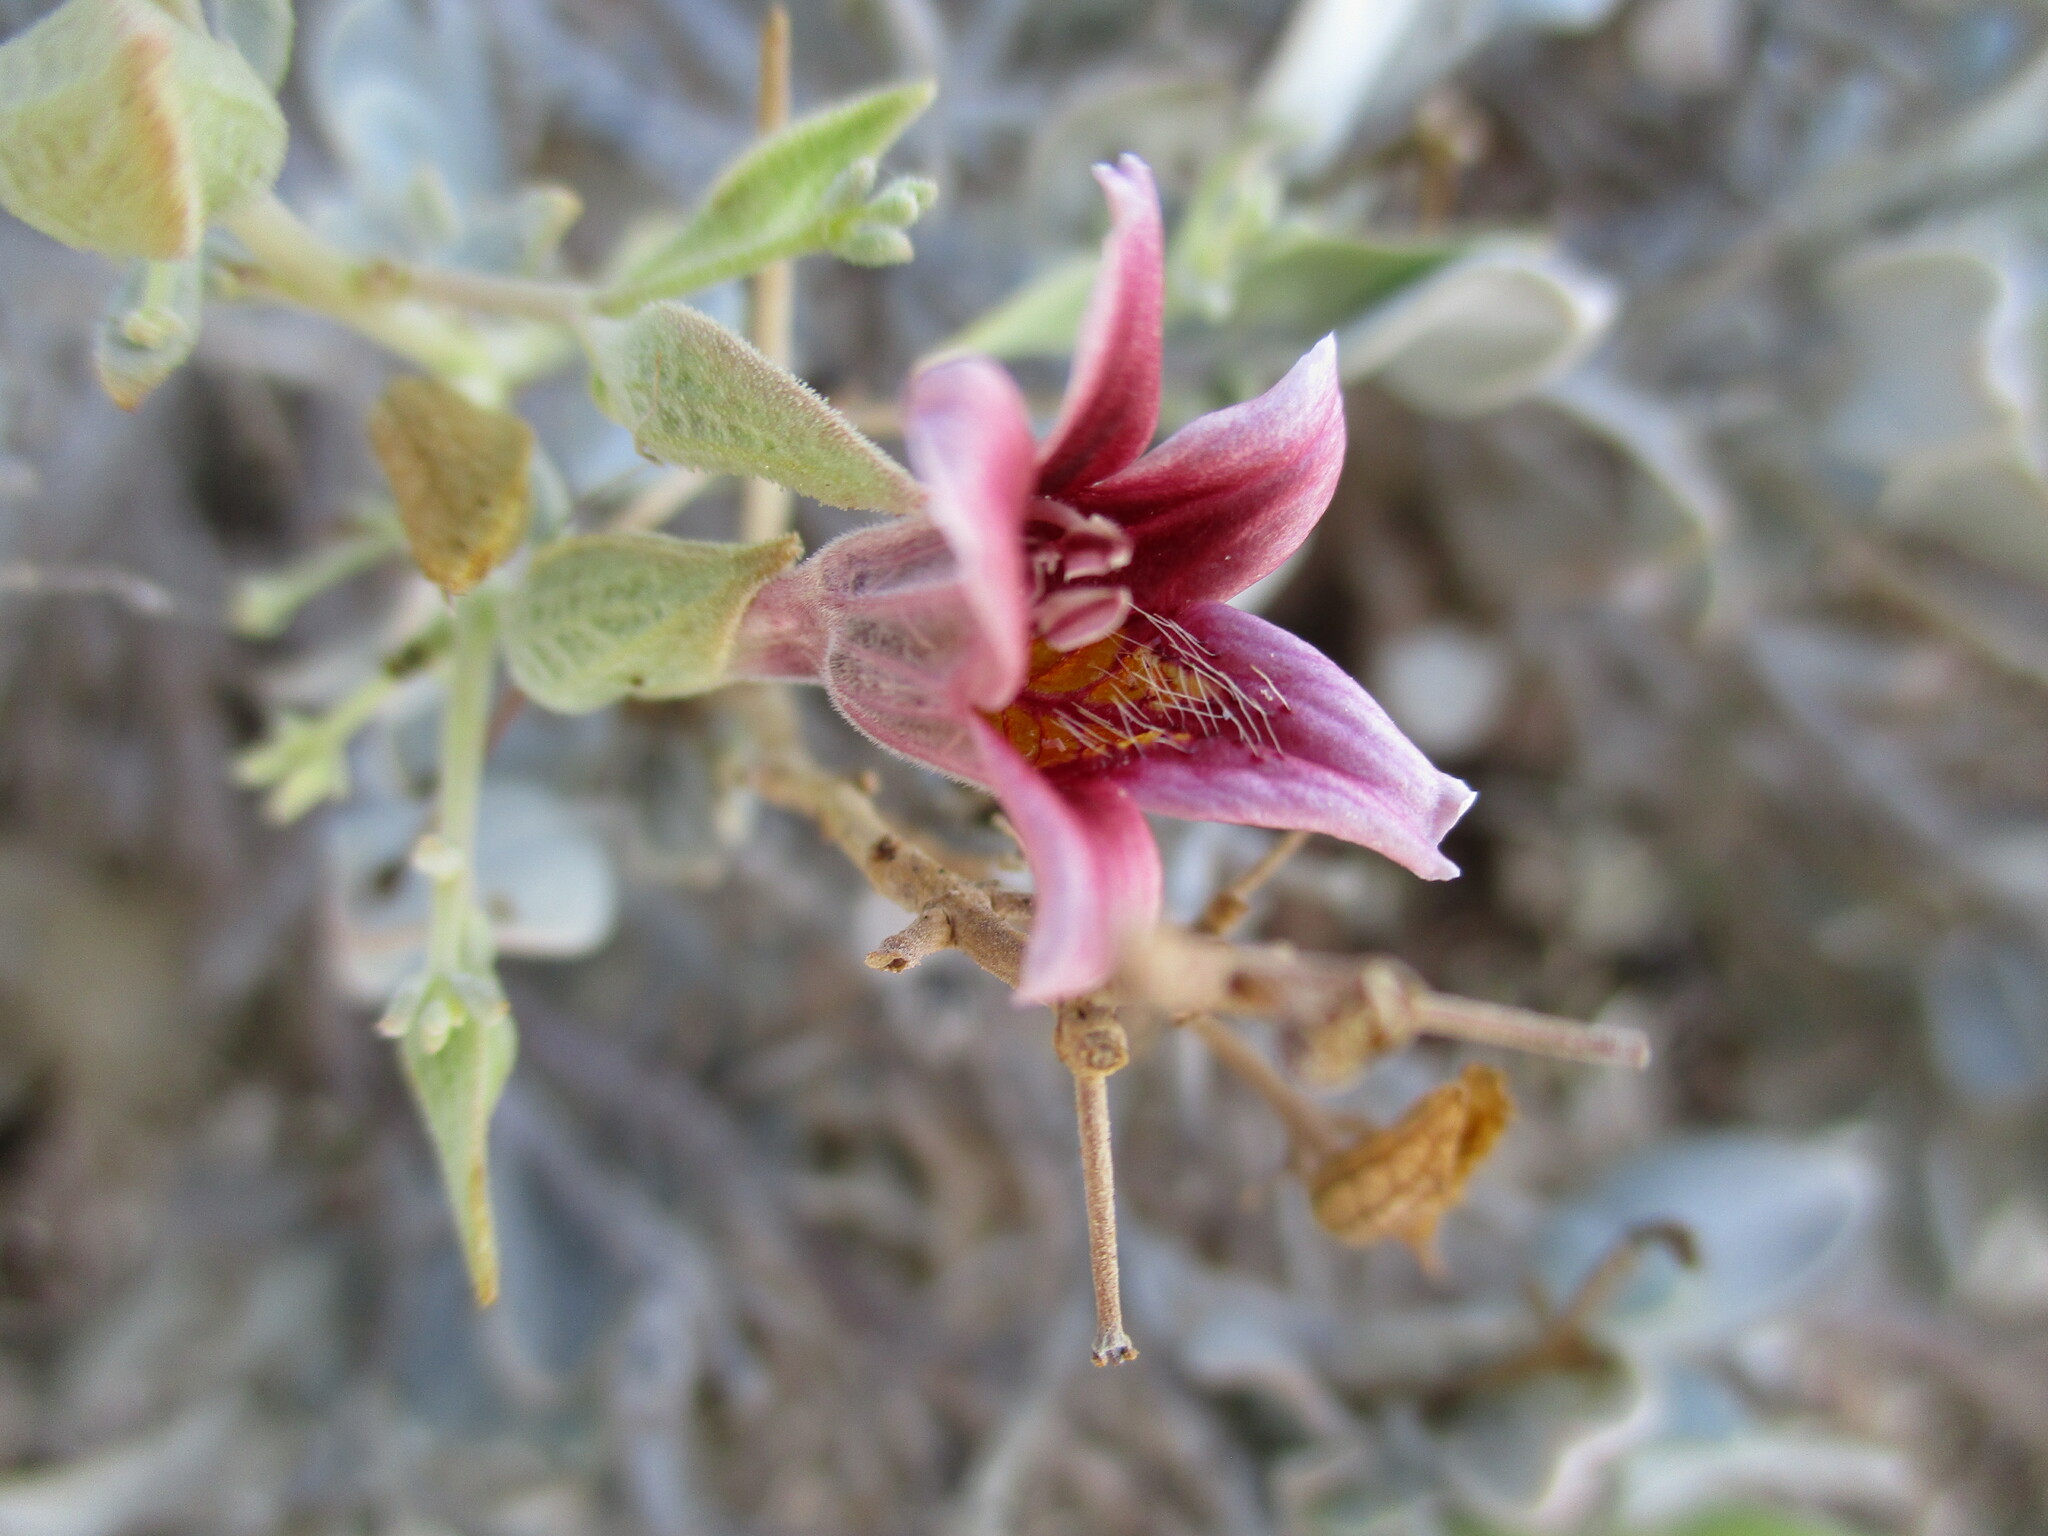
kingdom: Plantae
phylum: Tracheophyta
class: Magnoliopsida
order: Lamiales
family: Acanthaceae
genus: Petalidium
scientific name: Petalidium pilosibracteolatum
